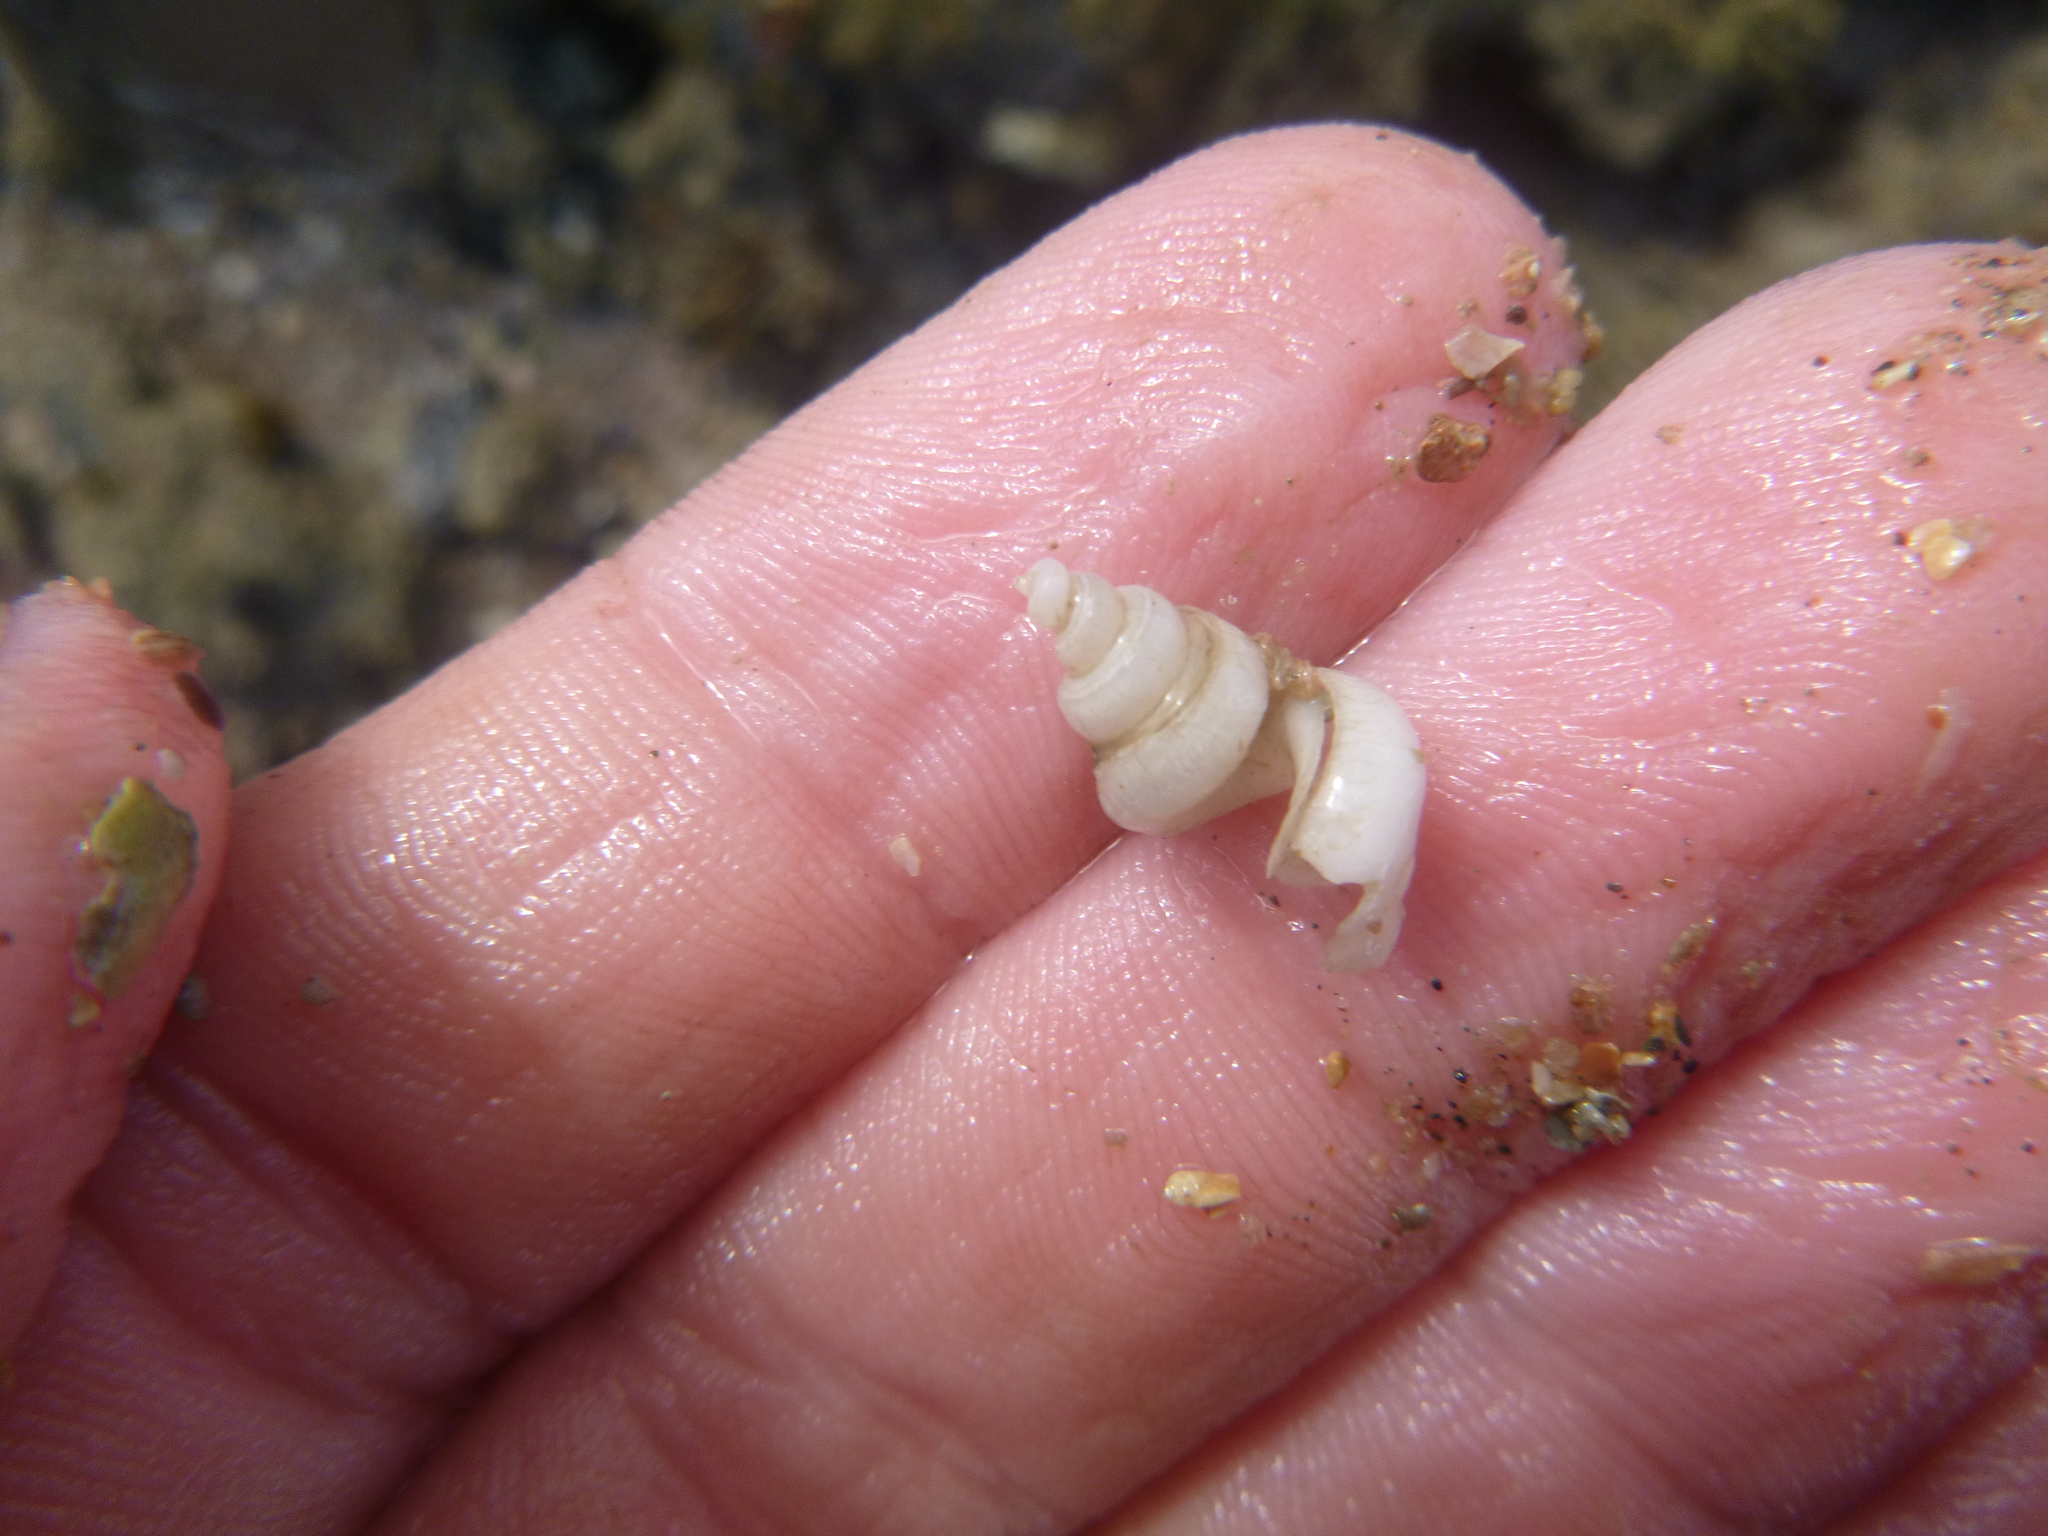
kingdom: Animalia
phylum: Mollusca
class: Gastropoda
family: Siliquariidae
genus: Tenagodus
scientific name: Tenagodus weldii
